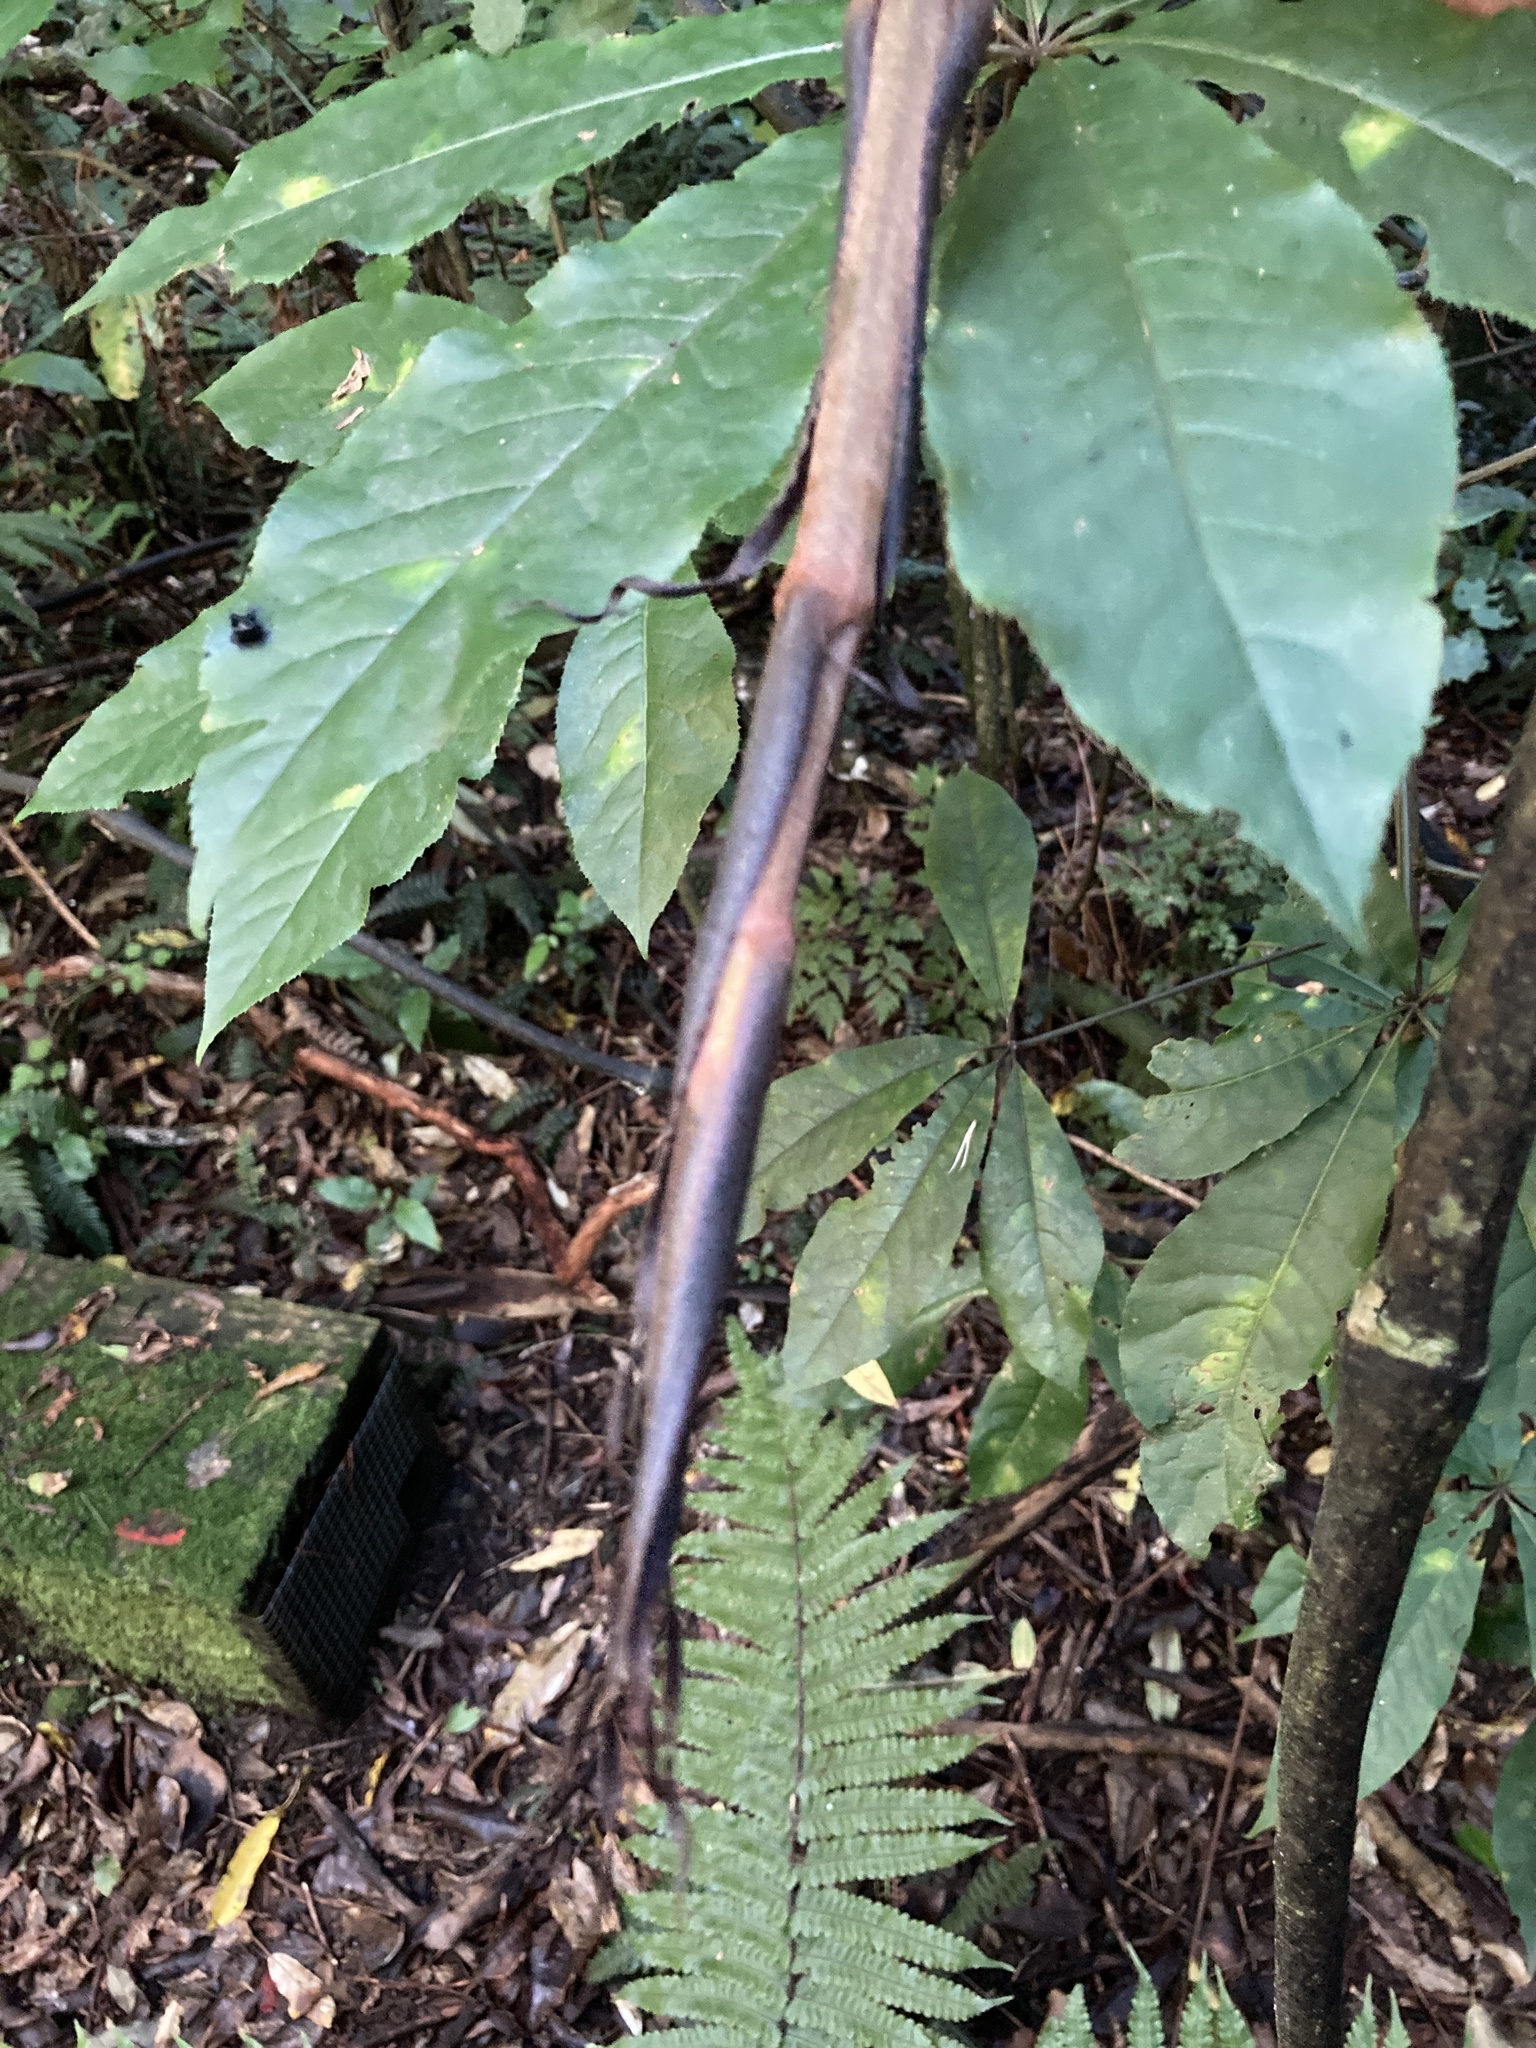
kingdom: Plantae
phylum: Tracheophyta
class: Liliopsida
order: Liliales
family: Ripogonaceae
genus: Ripogonum
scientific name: Ripogonum scandens
